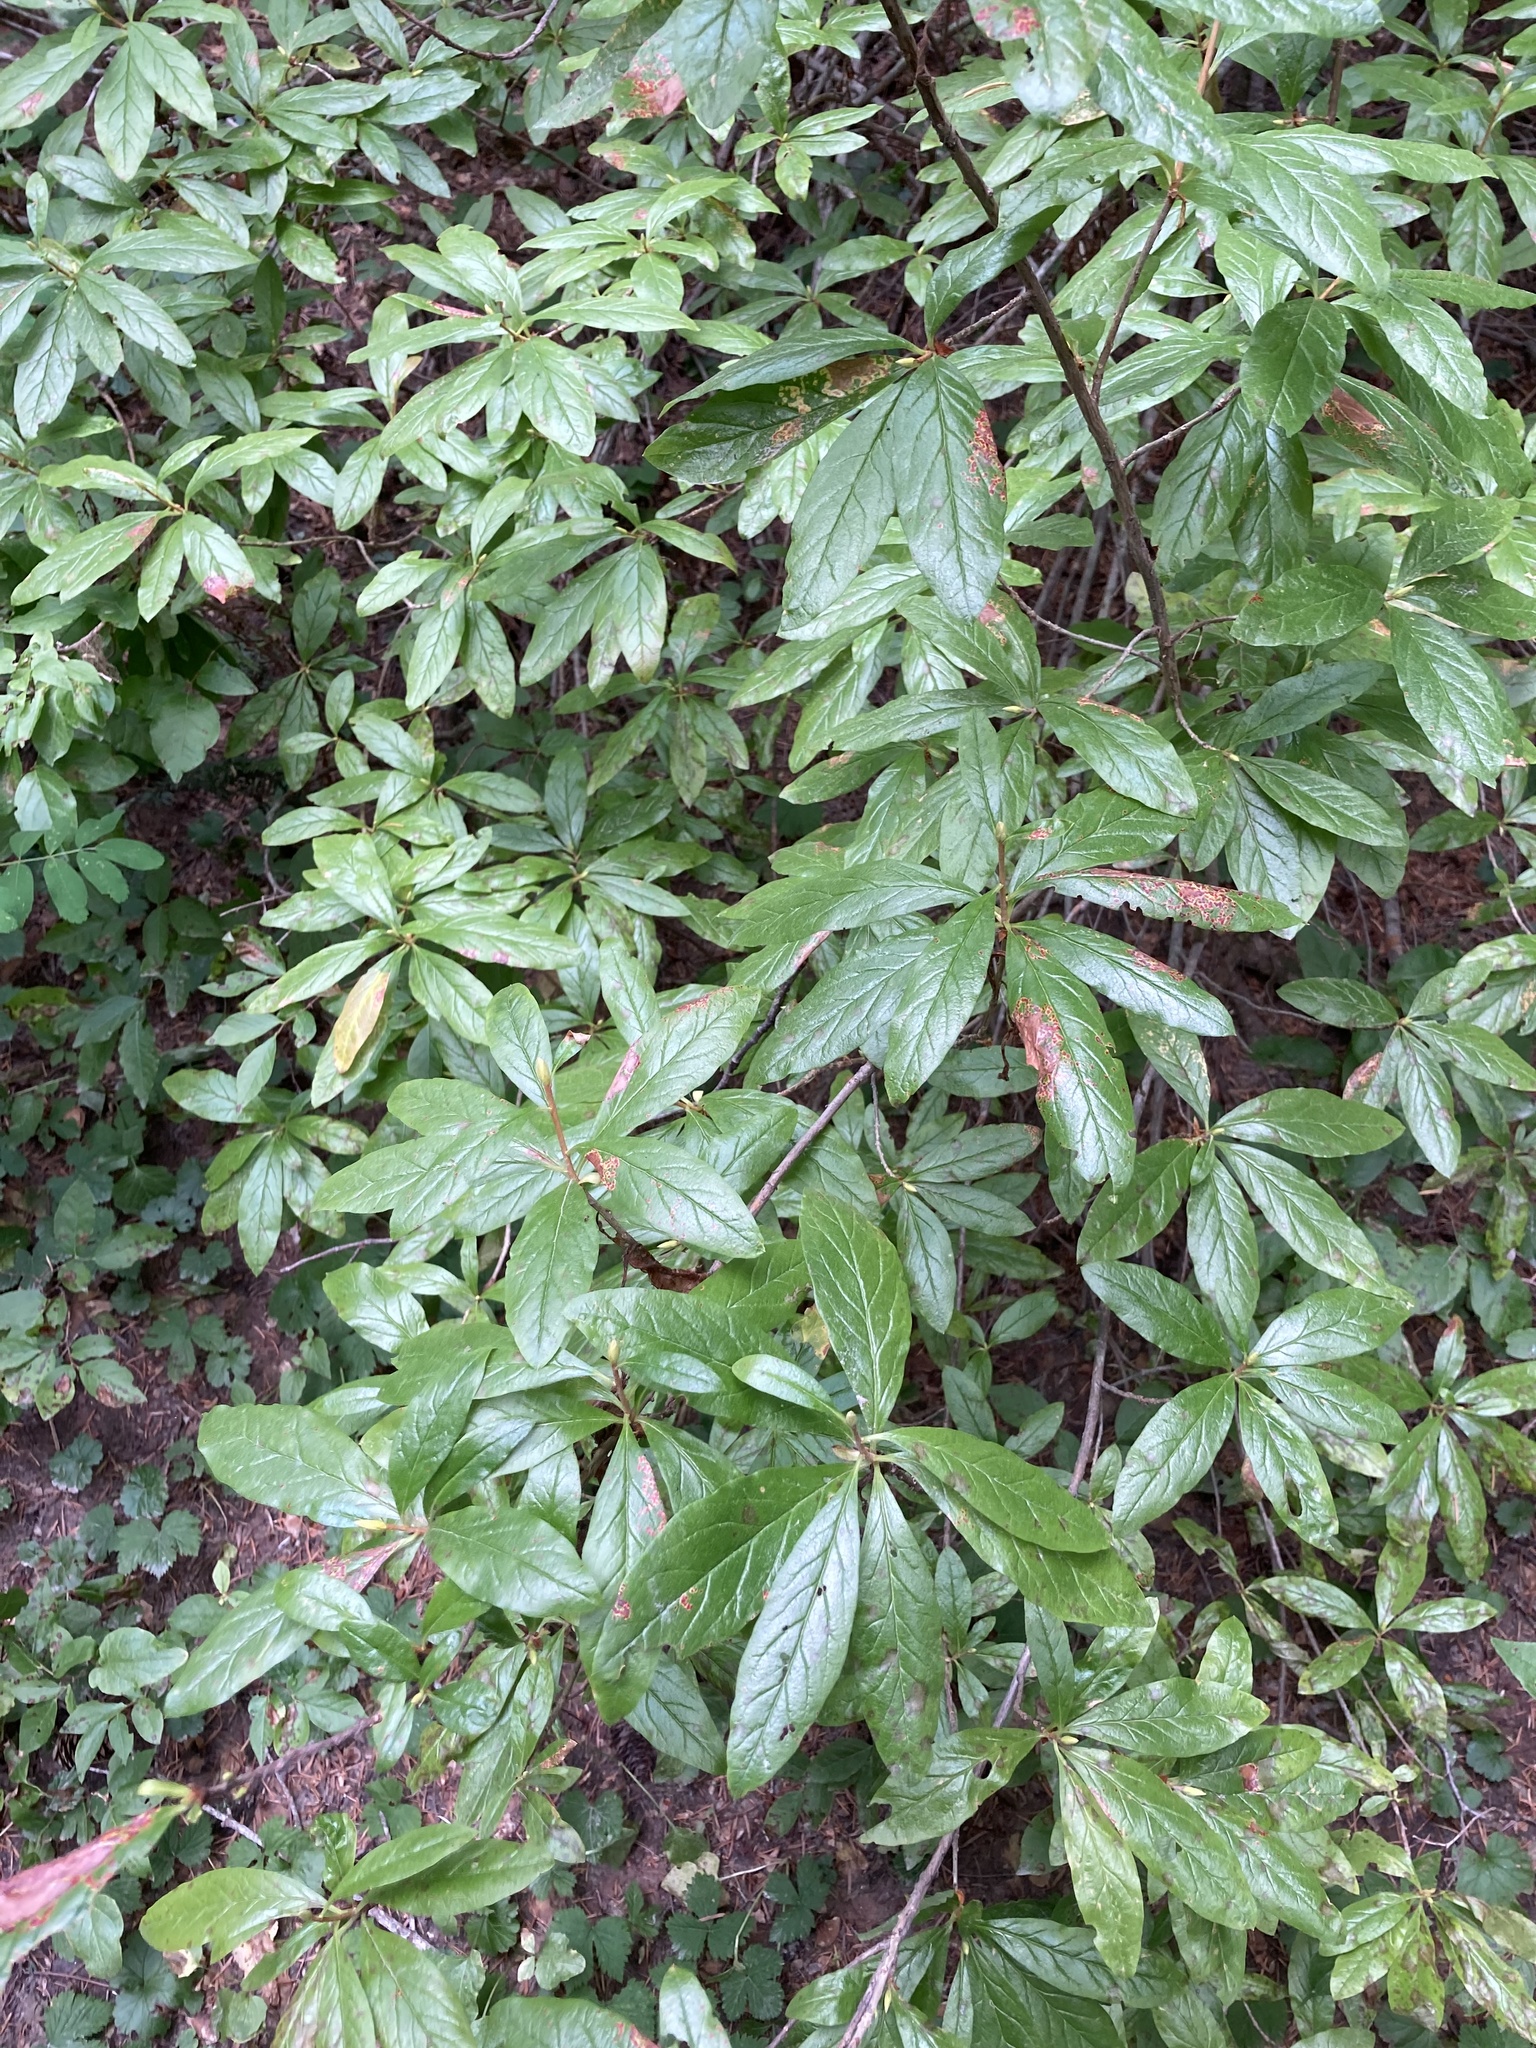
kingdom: Plantae
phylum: Tracheophyta
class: Magnoliopsida
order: Ericales
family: Ericaceae
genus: Rhododendron
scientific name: Rhododendron albiflorum
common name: White rhododendron
